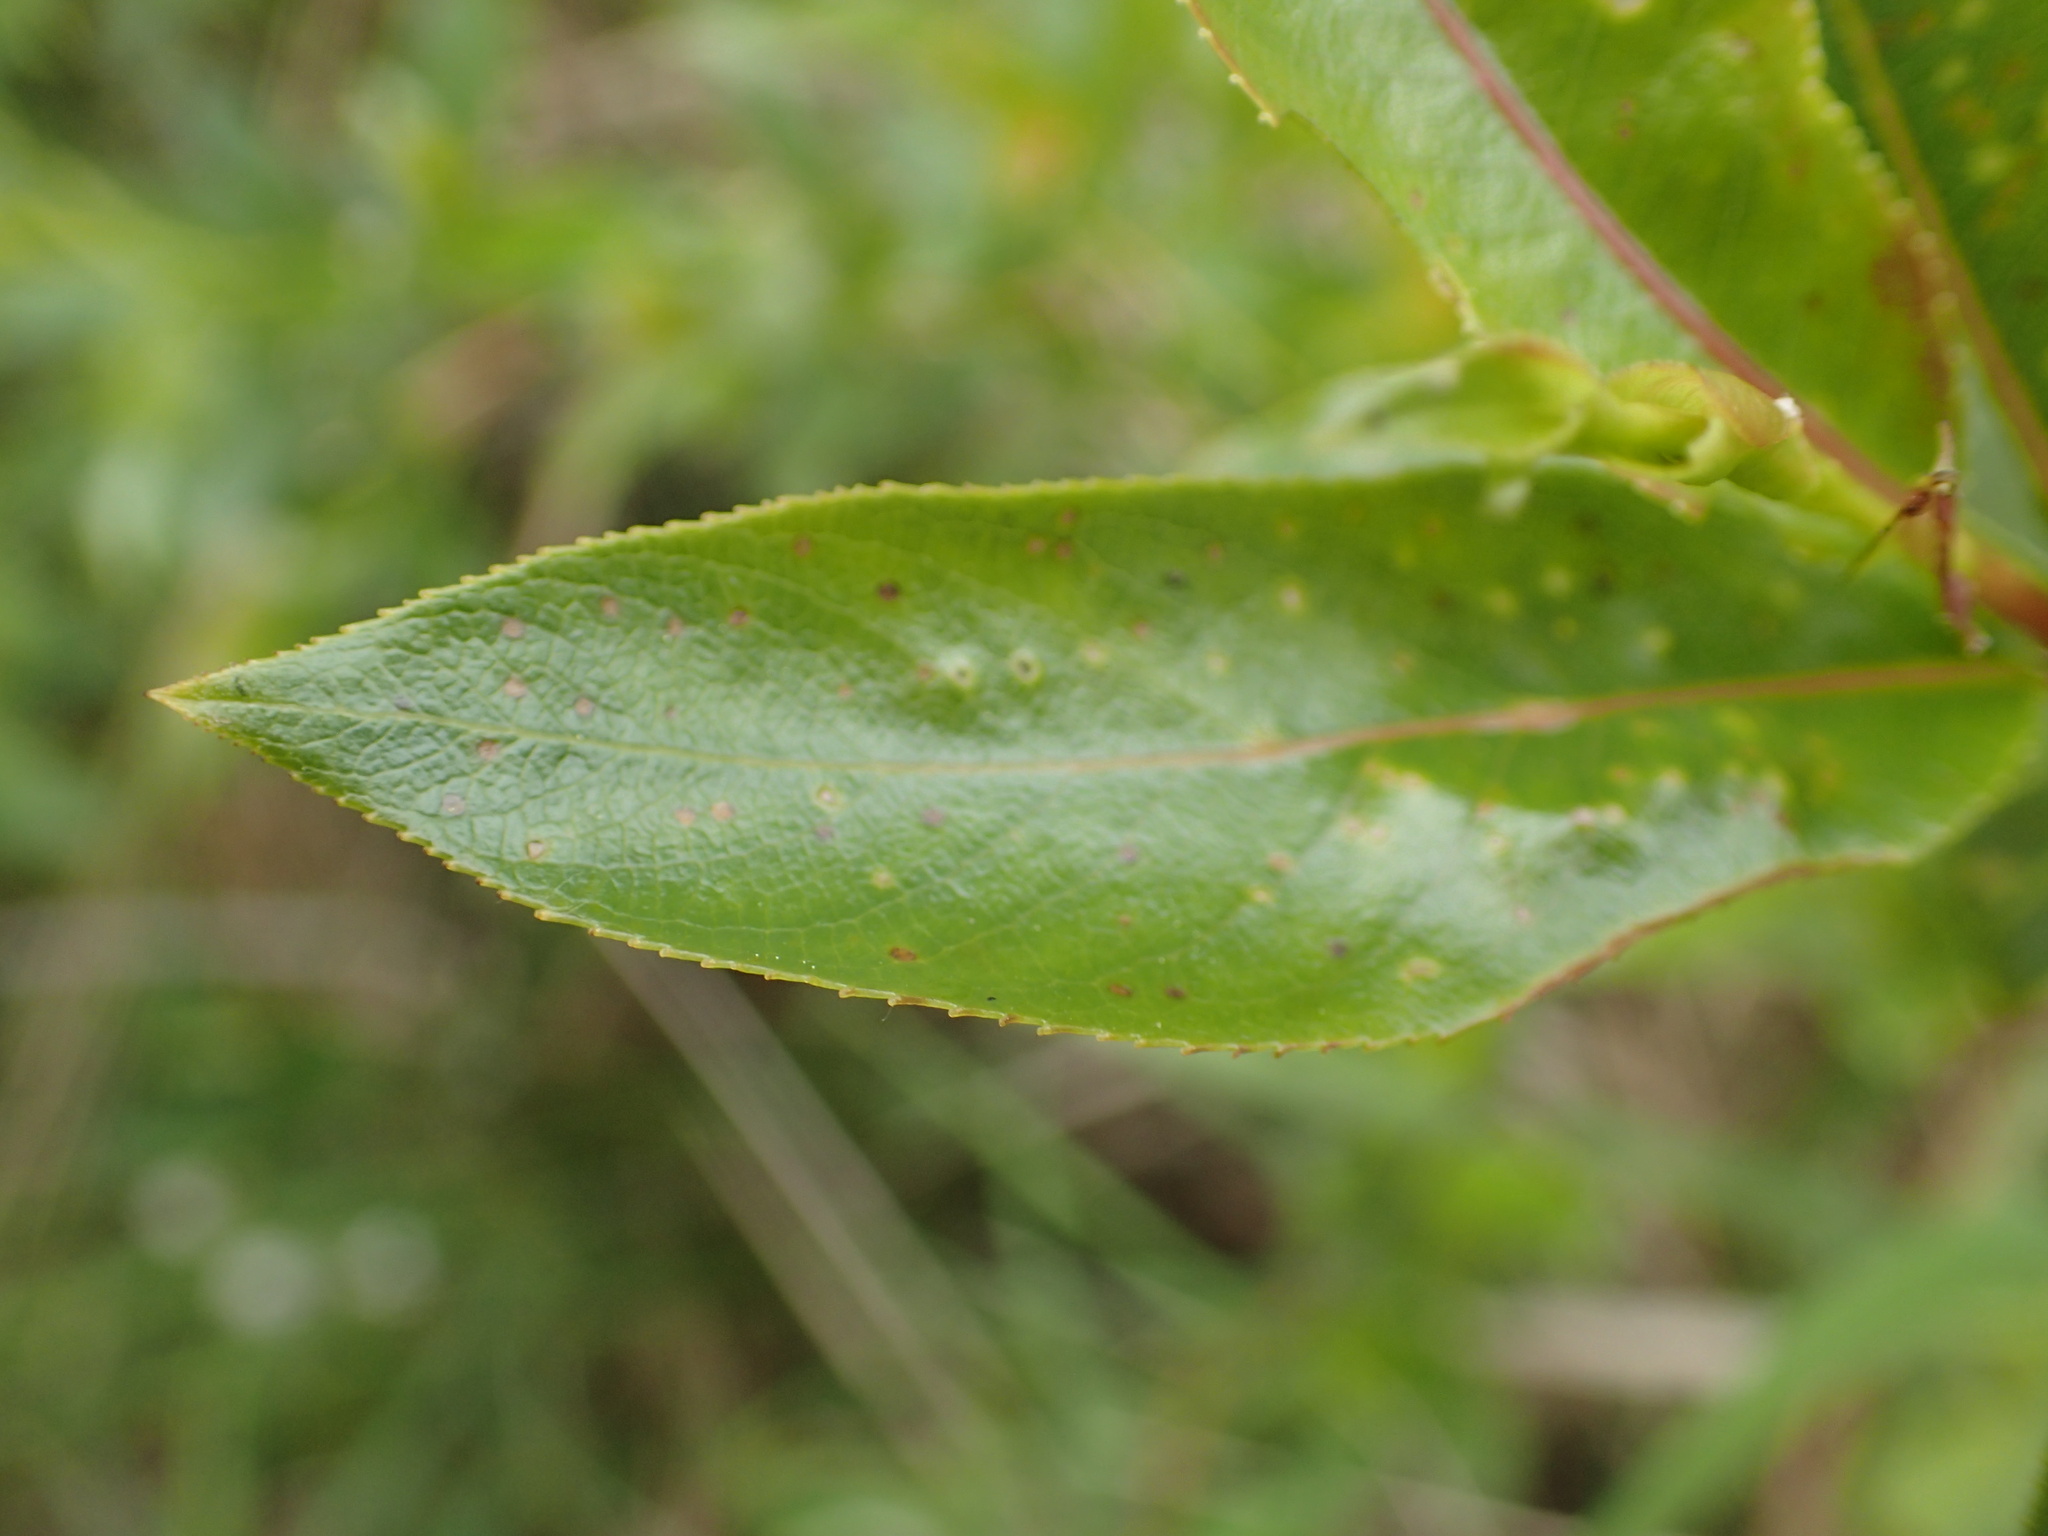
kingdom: Plantae
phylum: Tracheophyta
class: Magnoliopsida
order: Malpighiales
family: Salicaceae
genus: Salix
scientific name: Salix serissima
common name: Autumn willow
